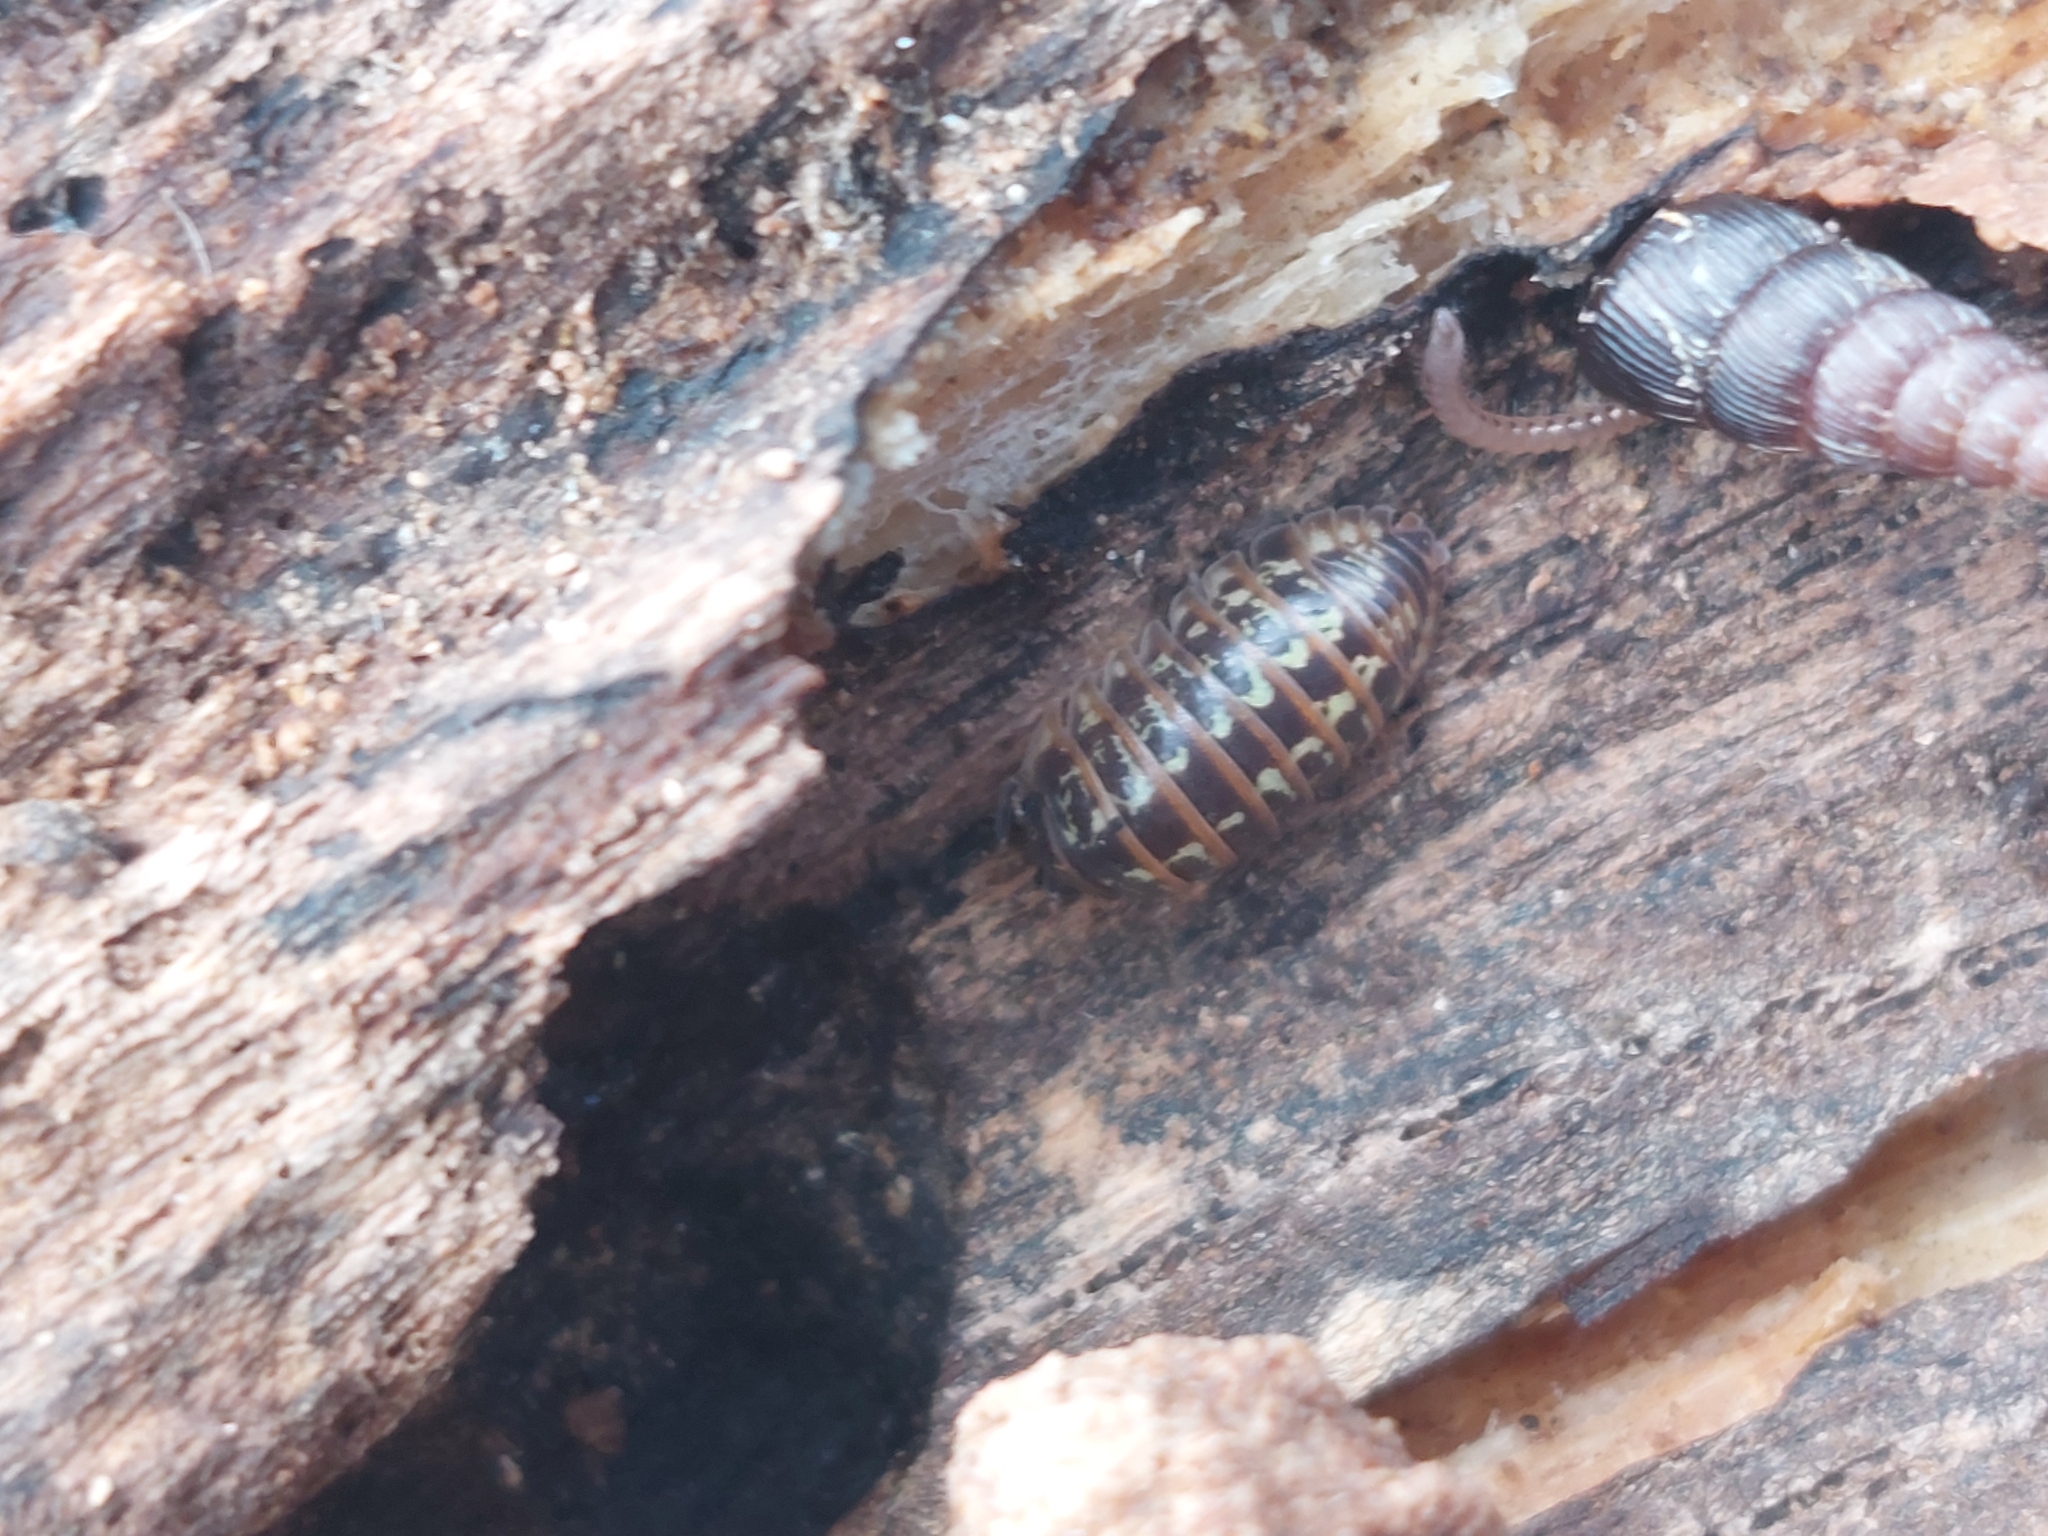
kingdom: Animalia
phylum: Arthropoda
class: Malacostraca
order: Isopoda
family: Armadillidiidae
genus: Armadillidium
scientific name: Armadillidium pictum
